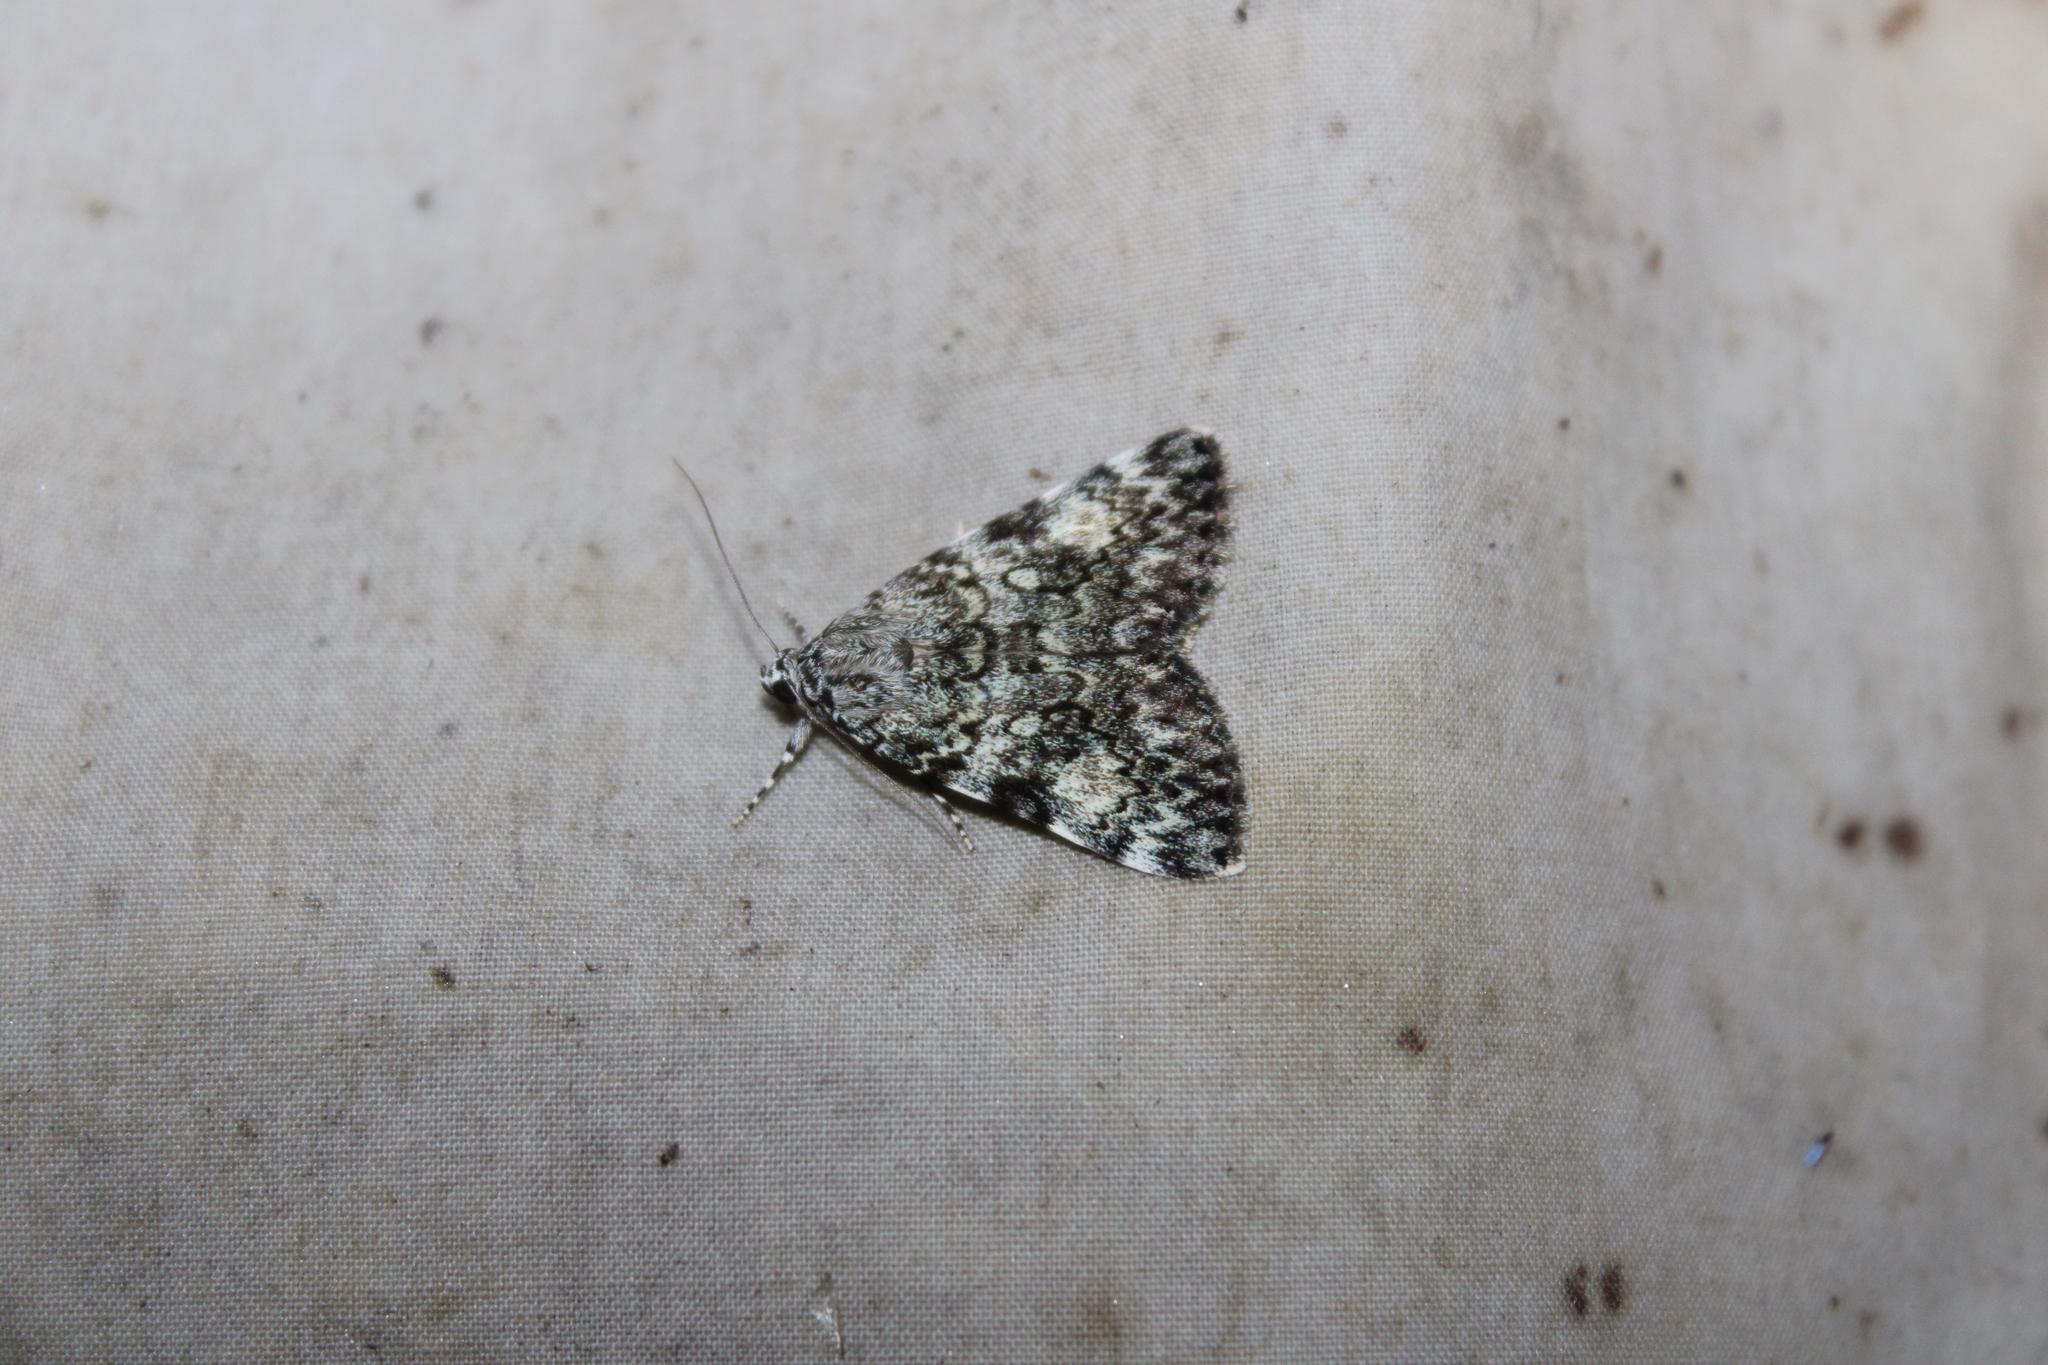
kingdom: Animalia
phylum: Arthropoda
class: Insecta
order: Lepidoptera
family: Erebidae
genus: Catocala
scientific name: Catocala lineella
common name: Little lined underwing
